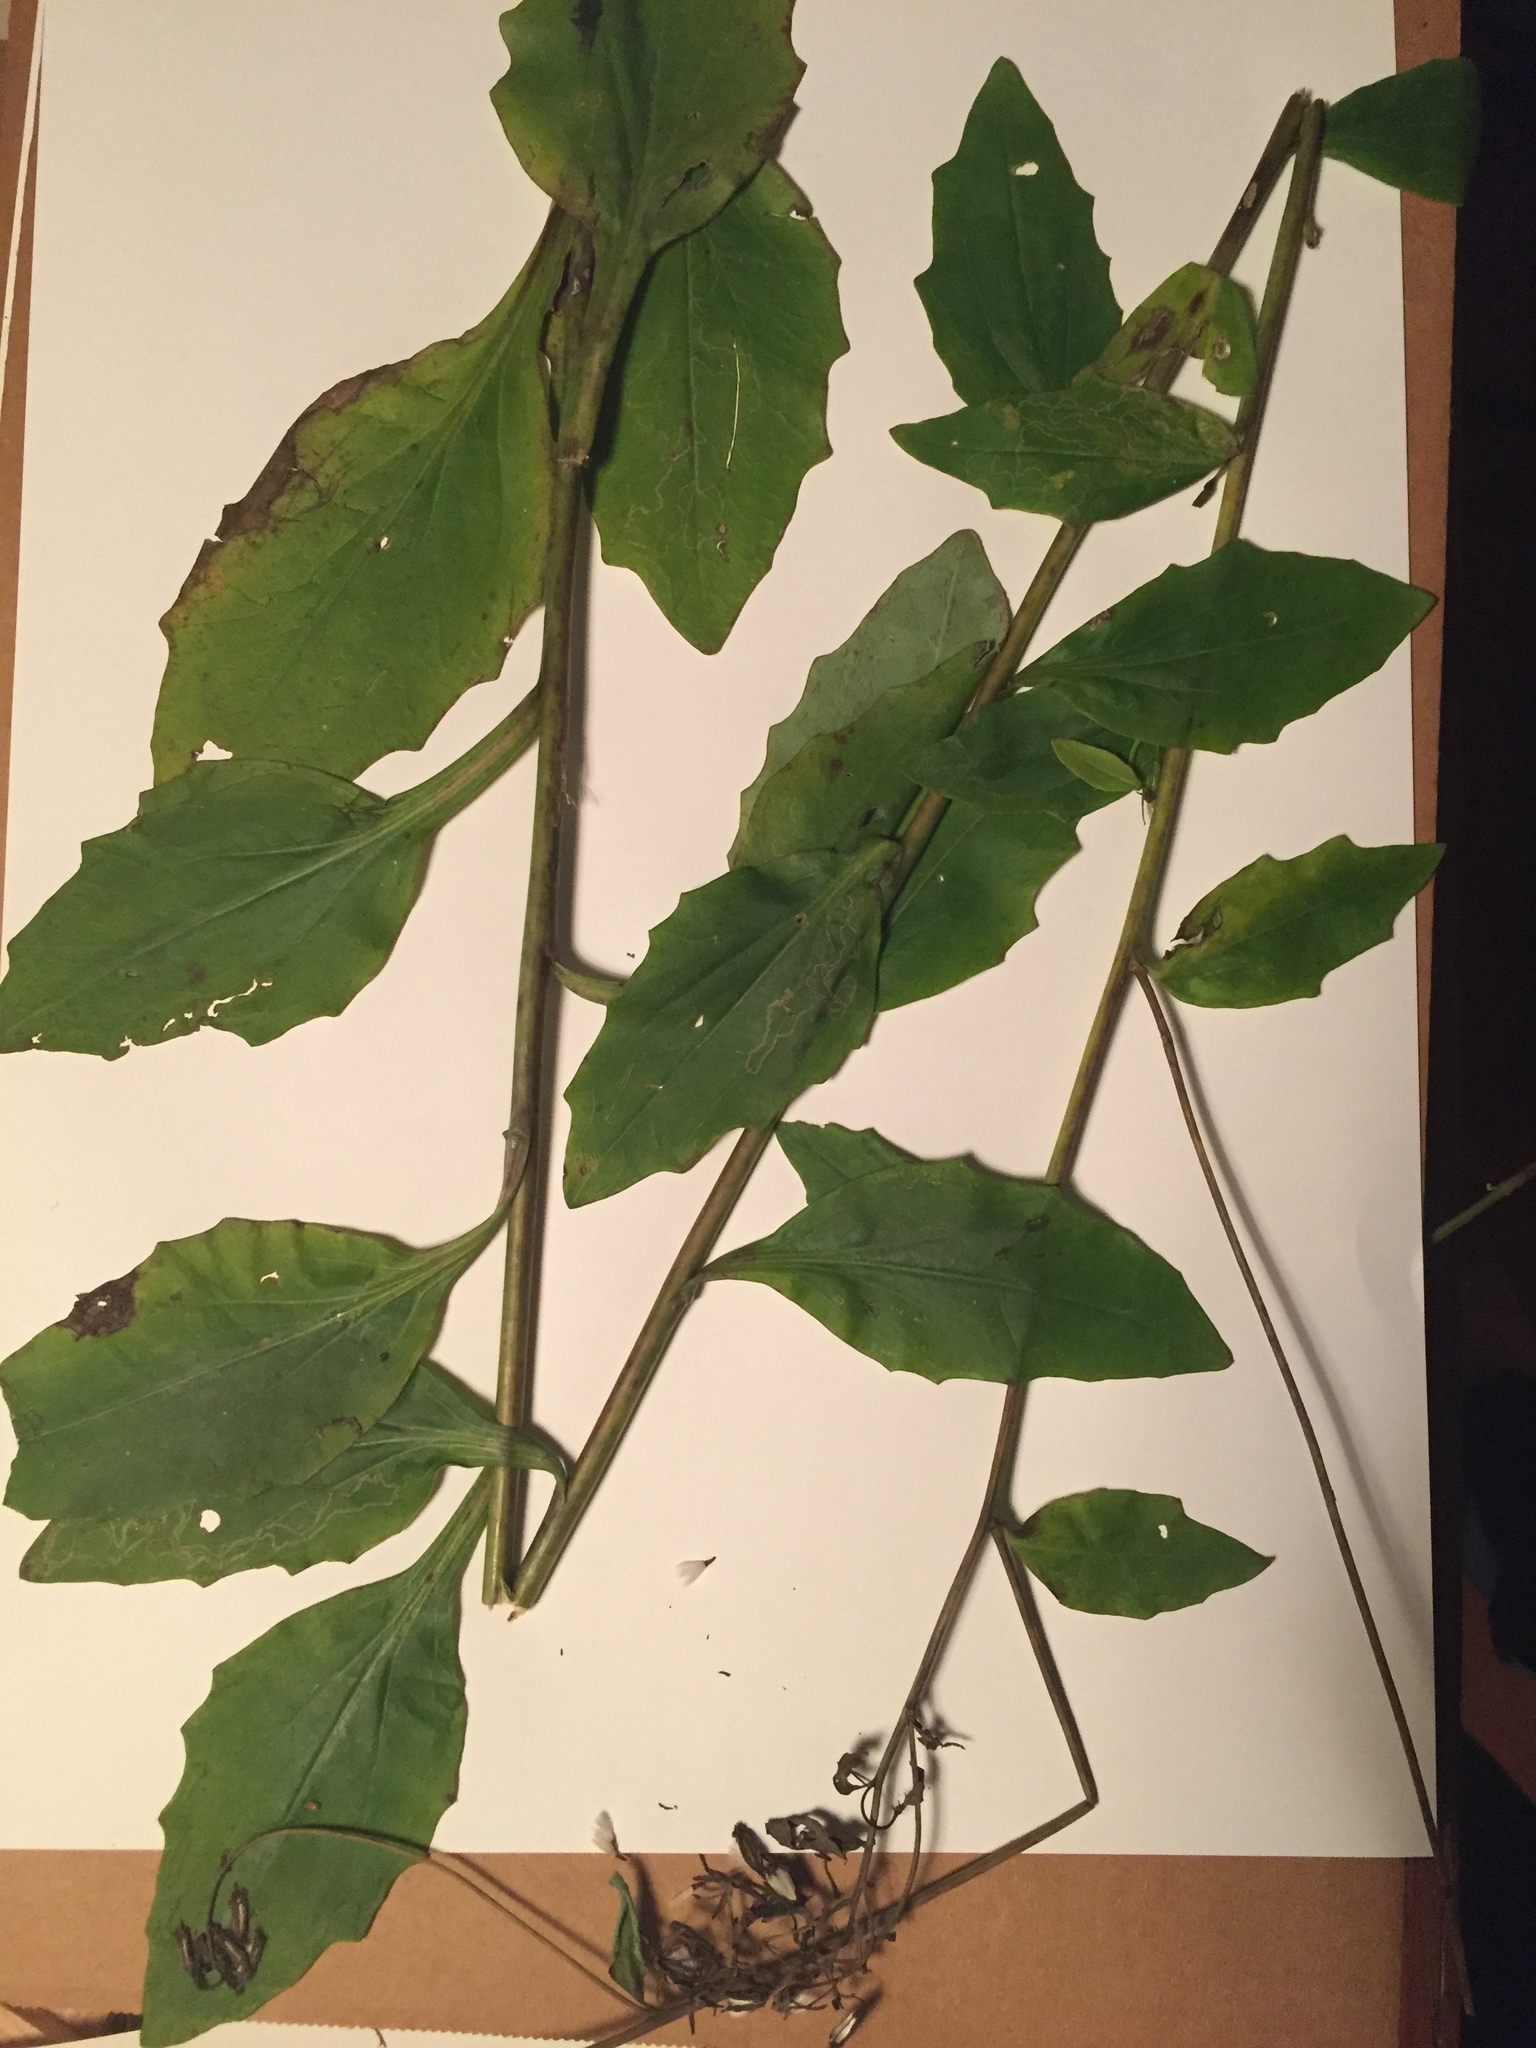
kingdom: Plantae
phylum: Tracheophyta
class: Magnoliopsida
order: Asterales
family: Asteraceae
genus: Arnoglossum
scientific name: Arnoglossum ovatum
